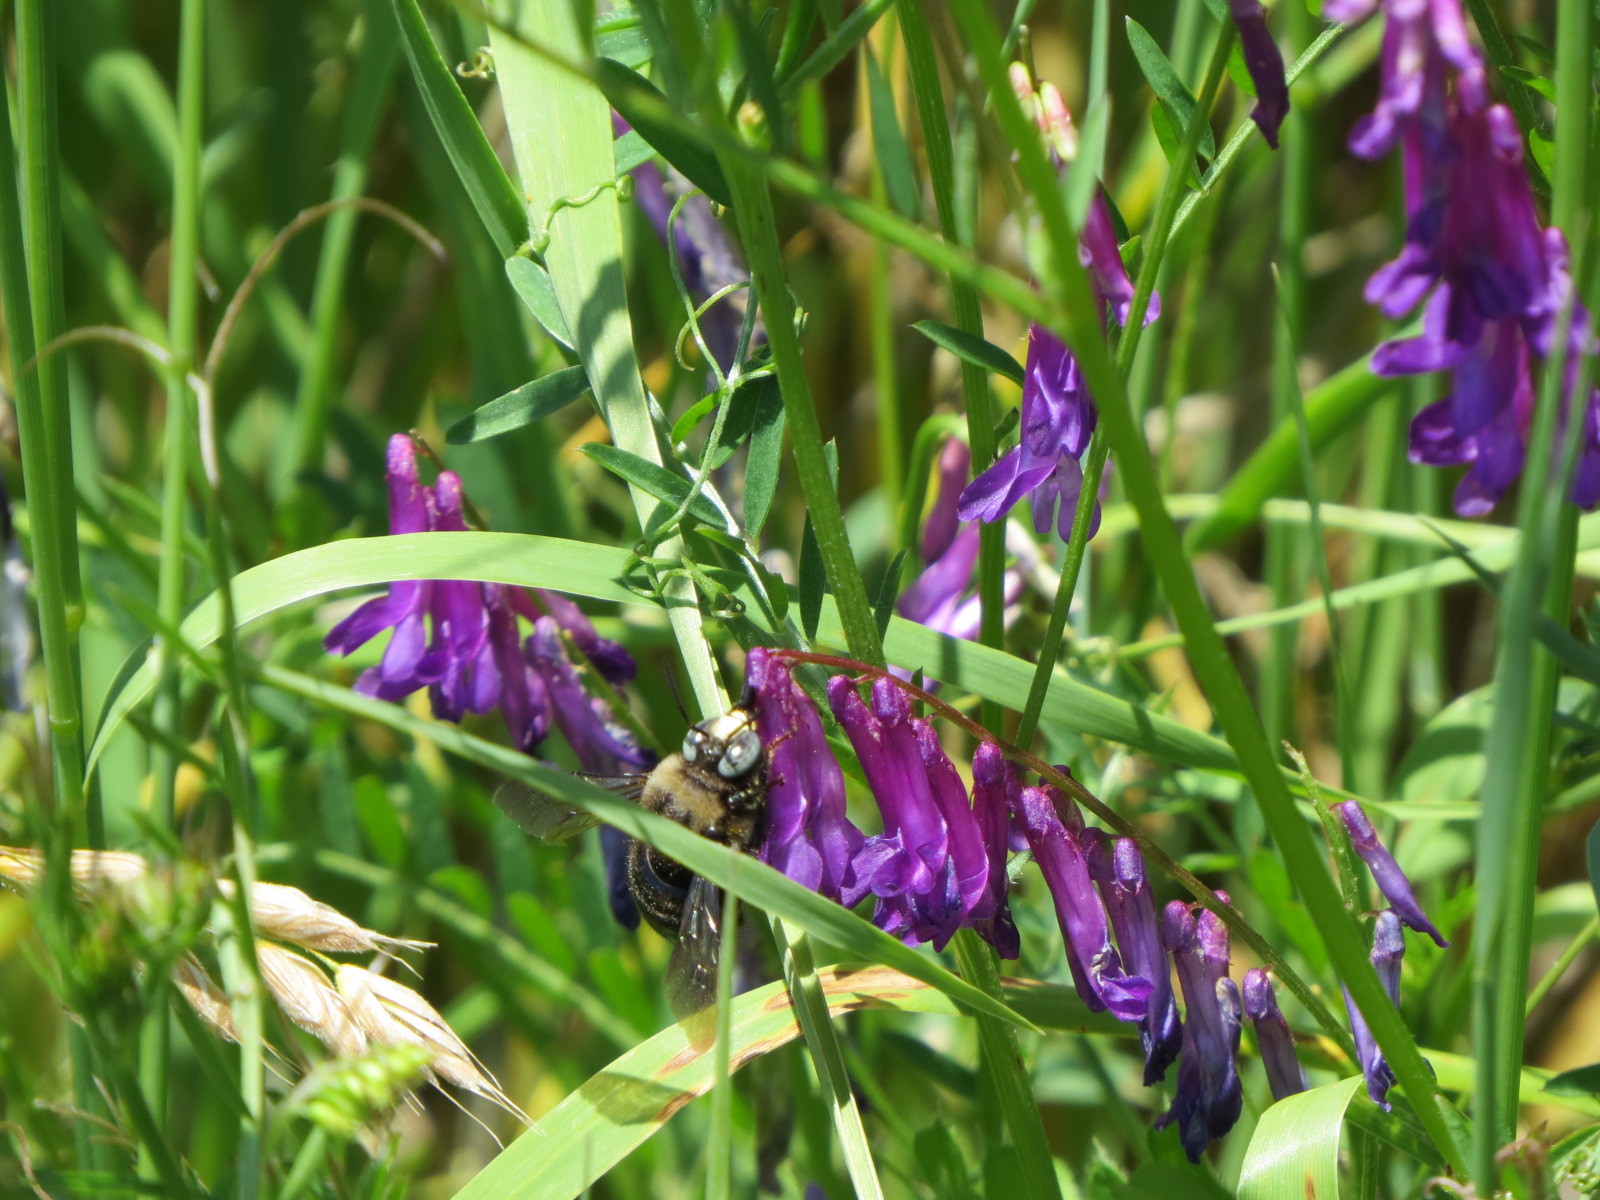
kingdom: Animalia
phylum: Arthropoda
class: Insecta
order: Hymenoptera
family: Apidae
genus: Xylocopa
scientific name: Xylocopa tabaniformis
